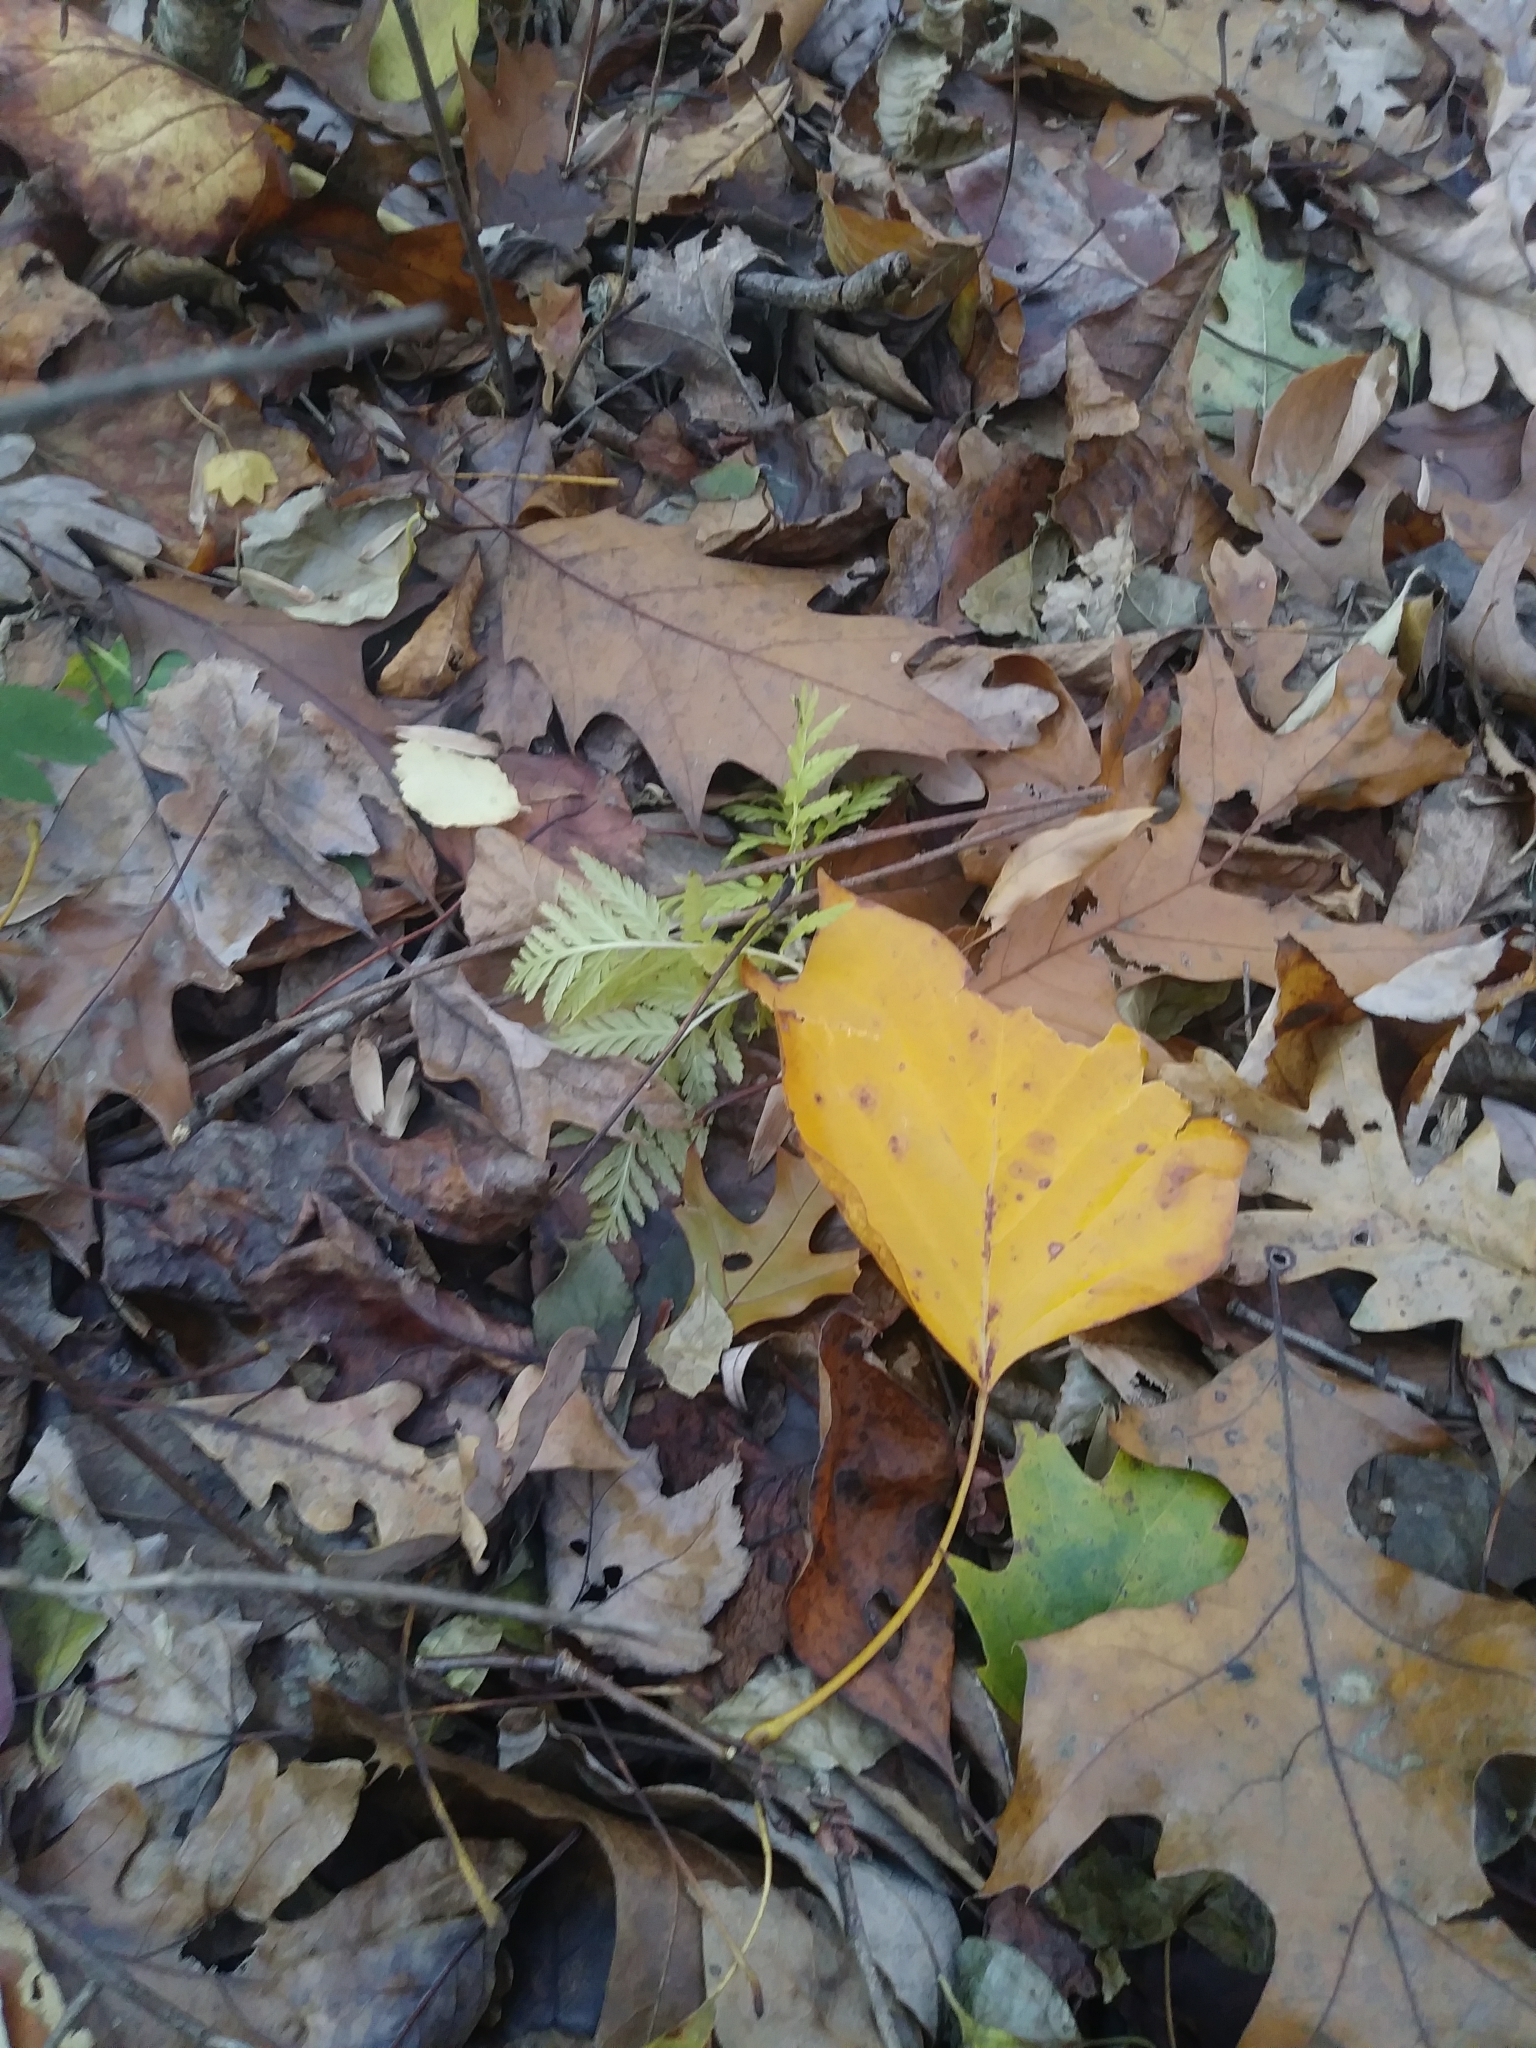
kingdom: Plantae
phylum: Tracheophyta
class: Polypodiopsida
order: Ophioglossales
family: Ophioglossaceae
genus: Botrypus
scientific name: Botrypus virginianus
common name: Common grapefern
